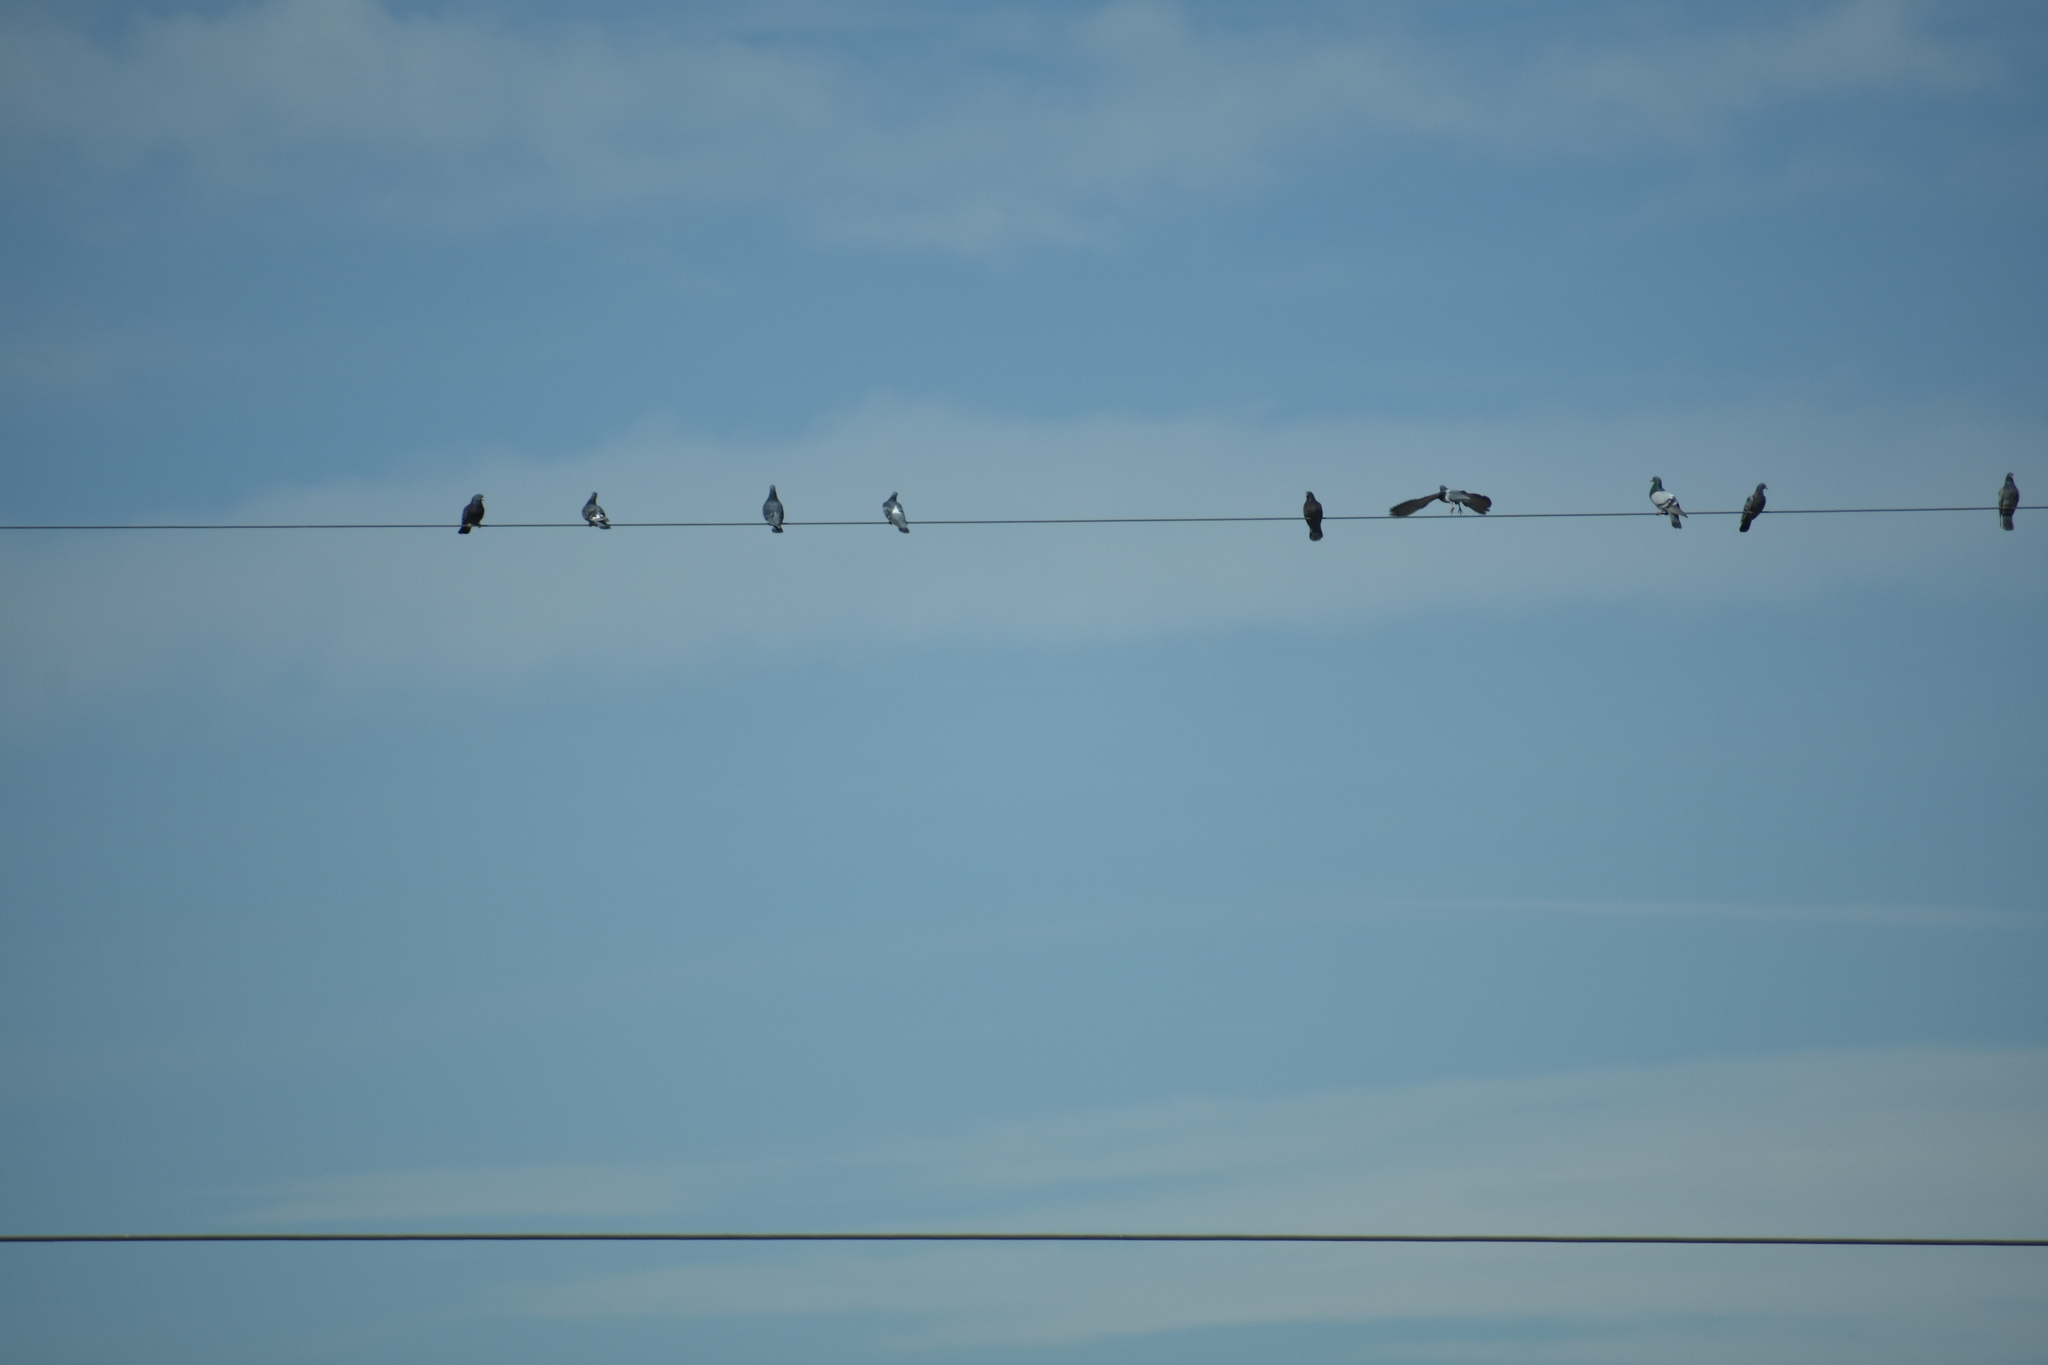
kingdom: Animalia
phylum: Chordata
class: Aves
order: Columbiformes
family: Columbidae
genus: Columba
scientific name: Columba livia
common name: Rock pigeon
